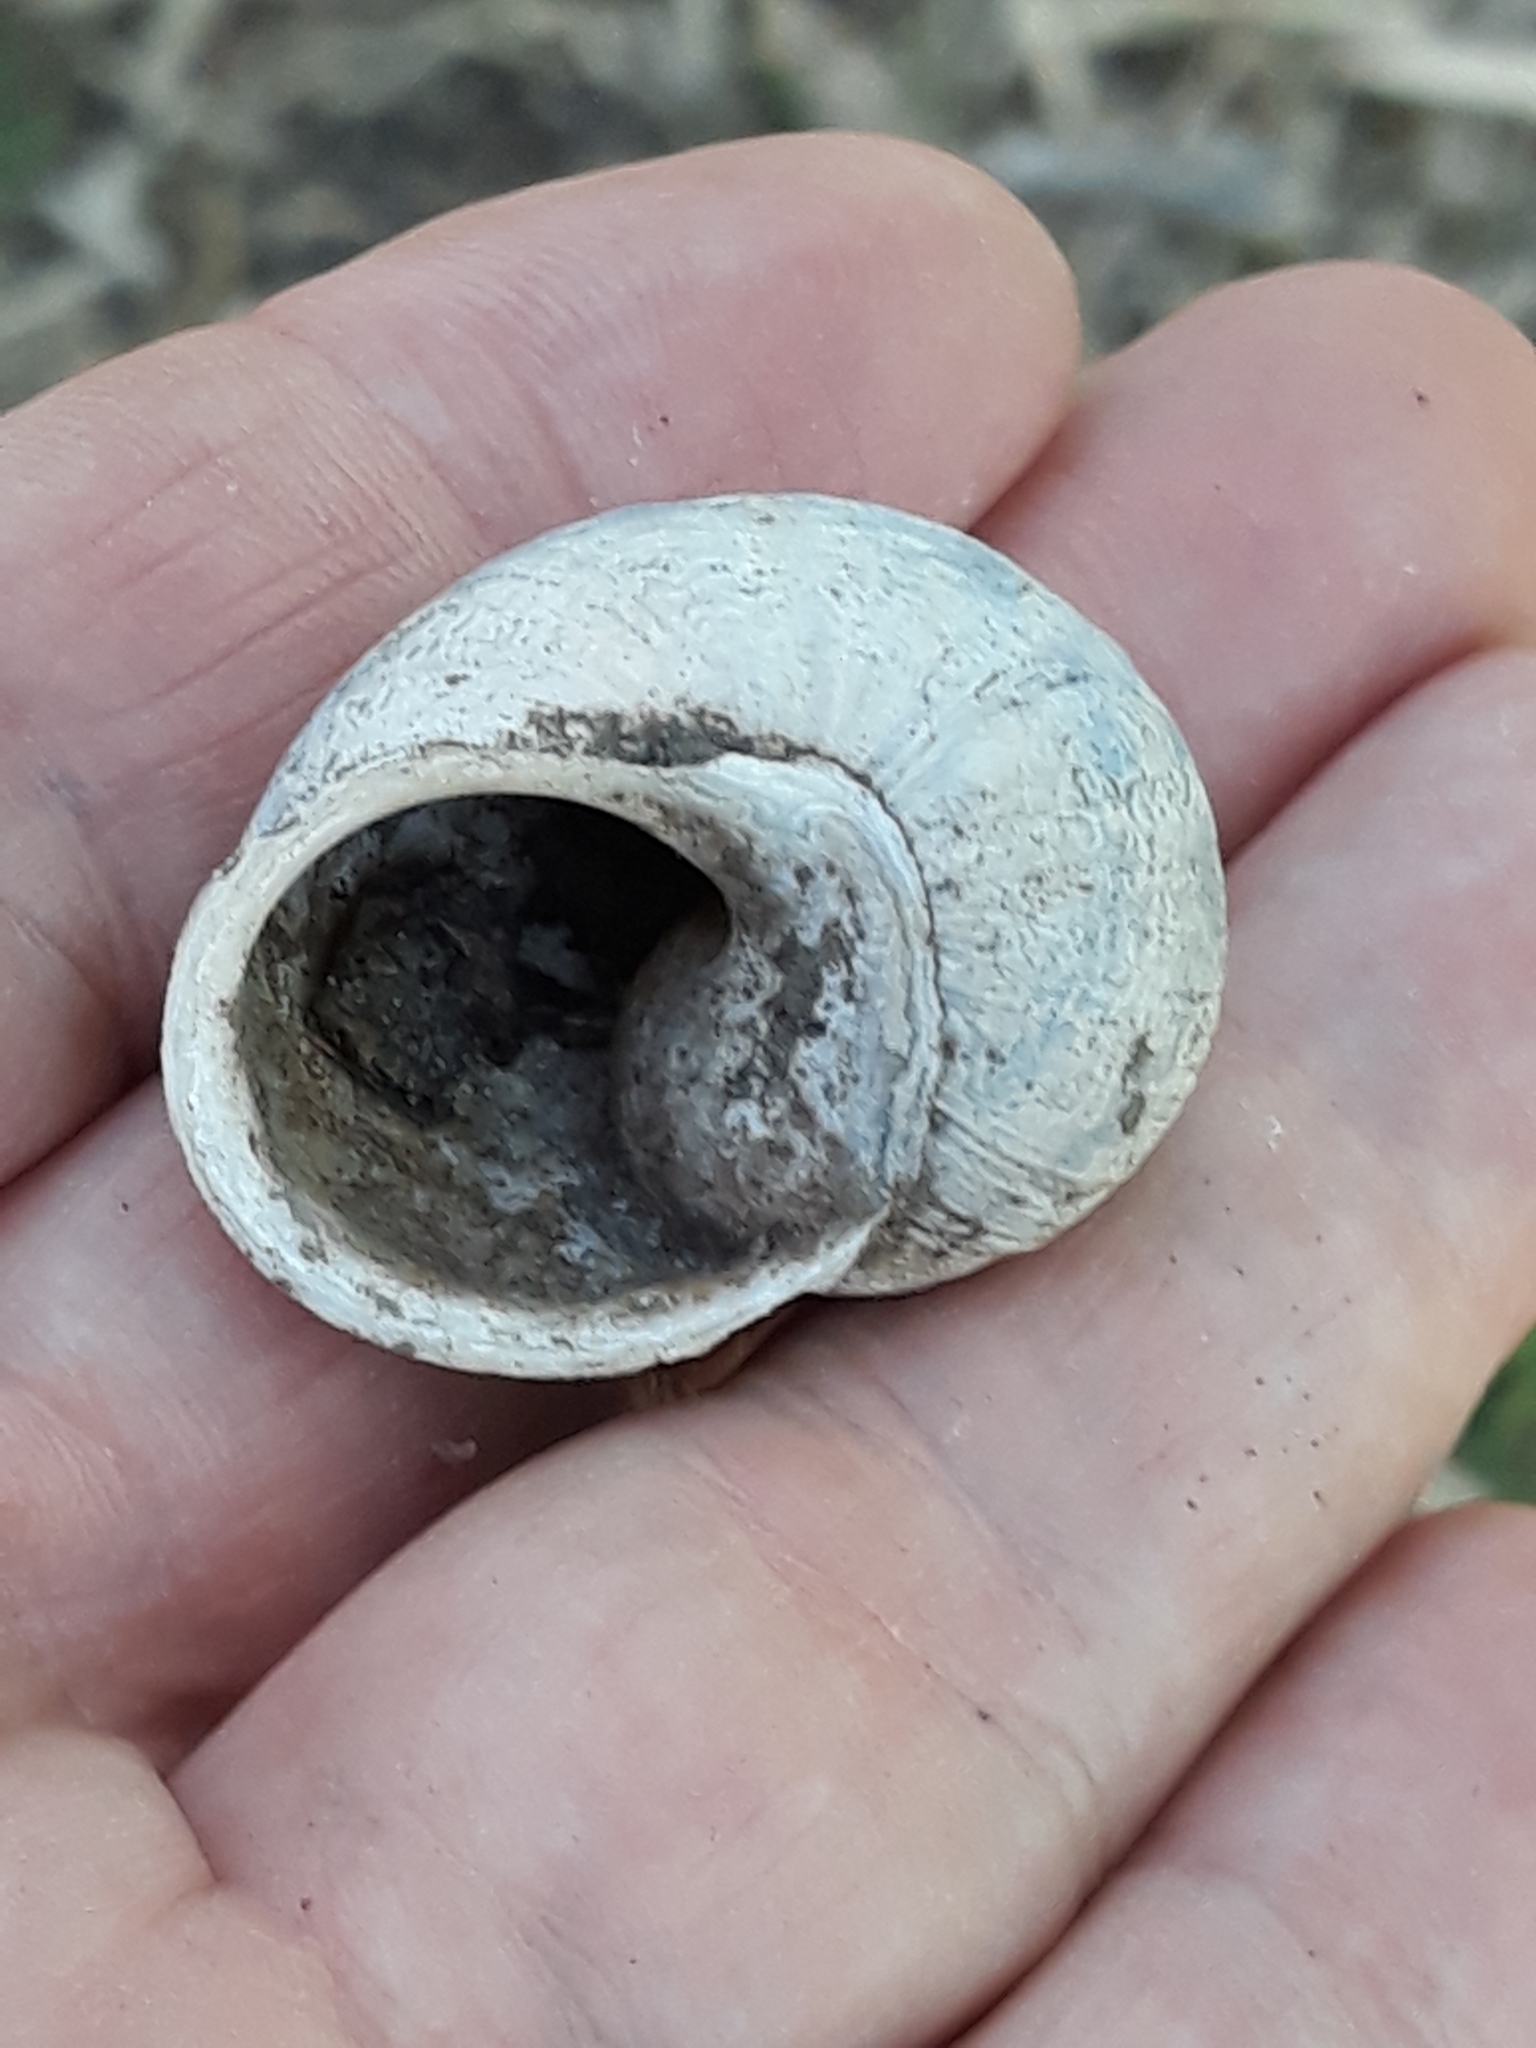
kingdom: Animalia
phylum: Mollusca
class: Gastropoda
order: Stylommatophora
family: Helicidae
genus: Cornu
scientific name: Cornu aspersum
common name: Brown garden snail
